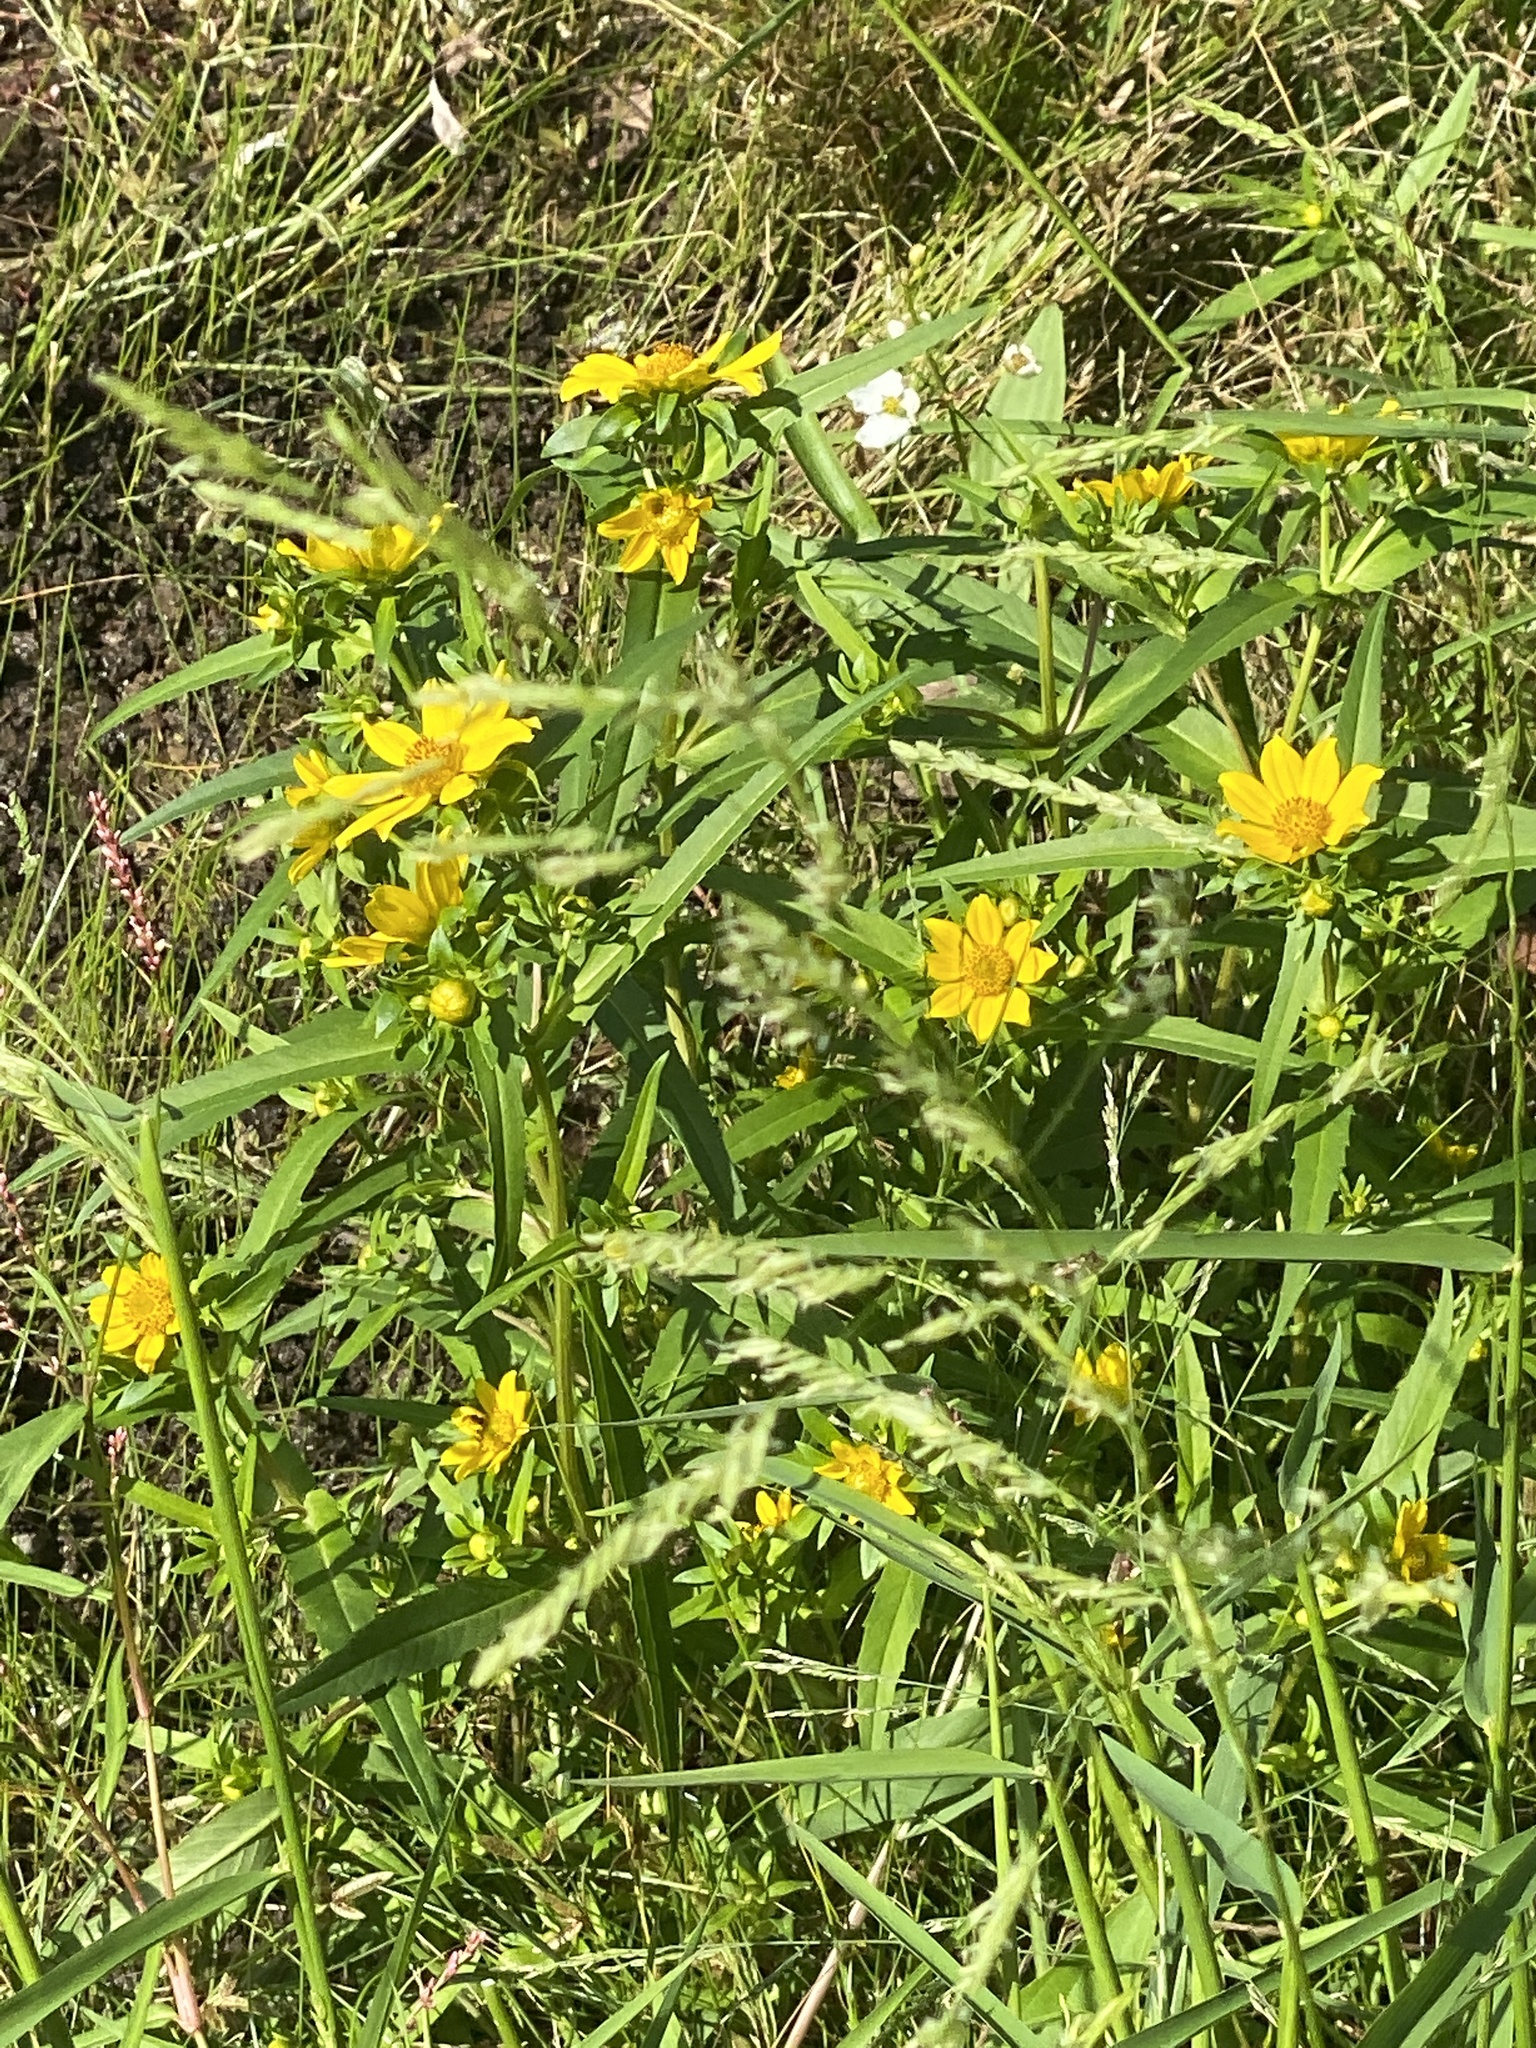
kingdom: Plantae
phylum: Tracheophyta
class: Magnoliopsida
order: Asterales
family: Asteraceae
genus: Bidens
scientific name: Bidens cernua
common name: Nodding bur-marigold
